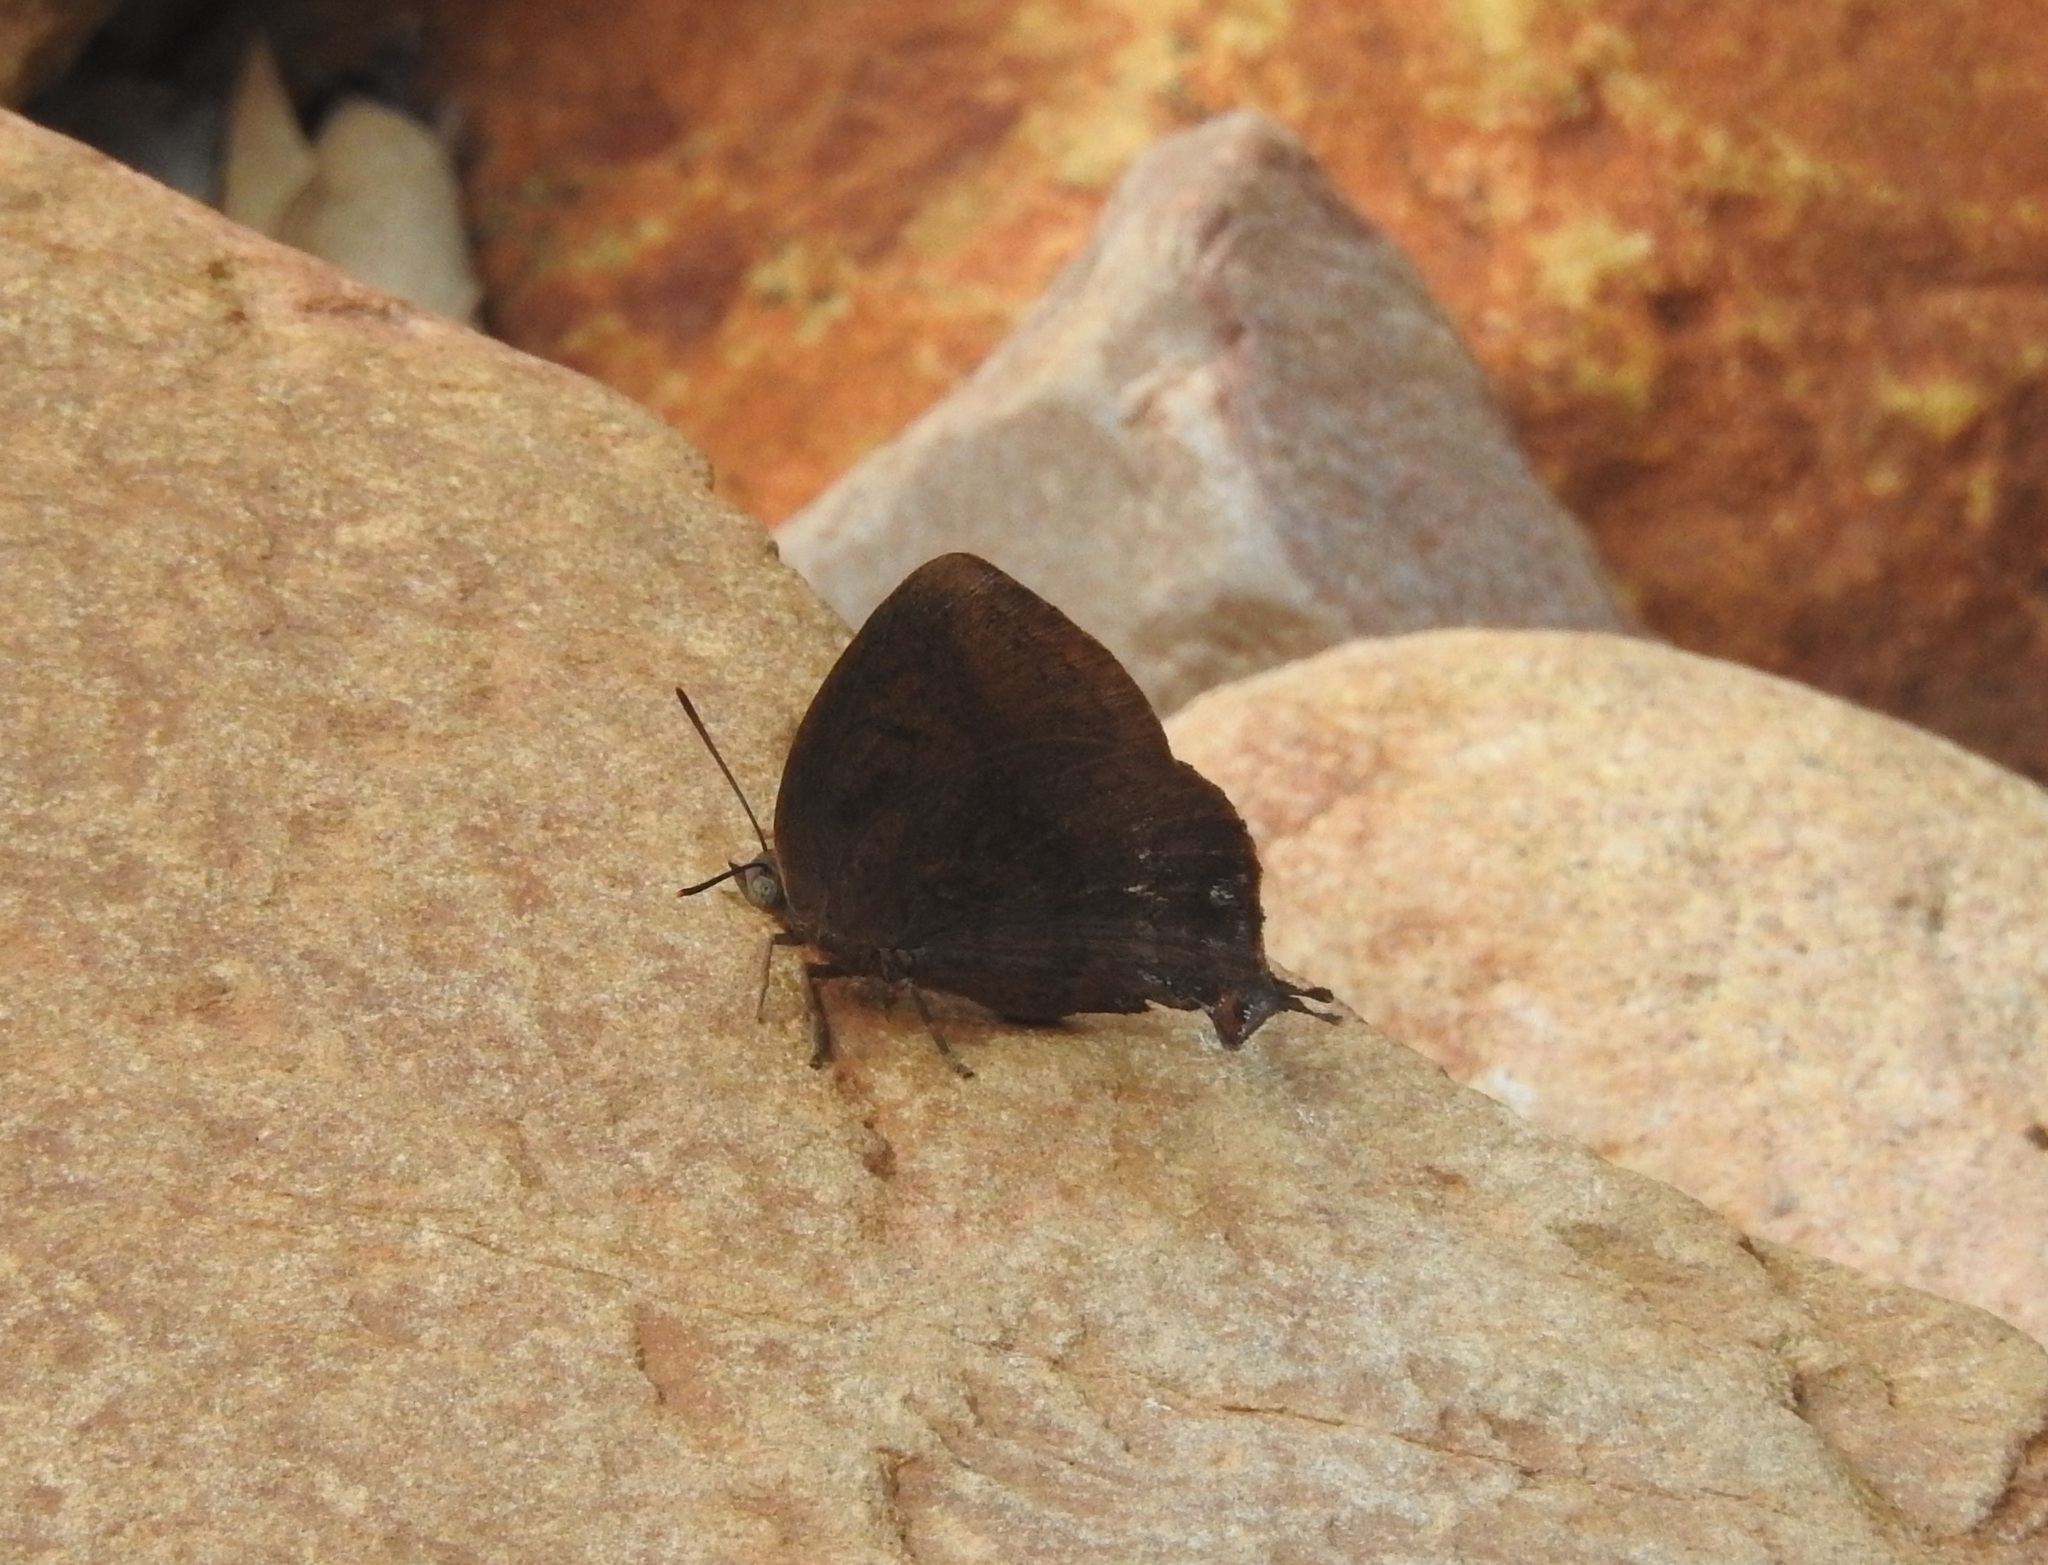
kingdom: Animalia
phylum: Arthropoda
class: Insecta
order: Lepidoptera
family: Lycaenidae
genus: Amblypodia
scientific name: Amblypodia anita
